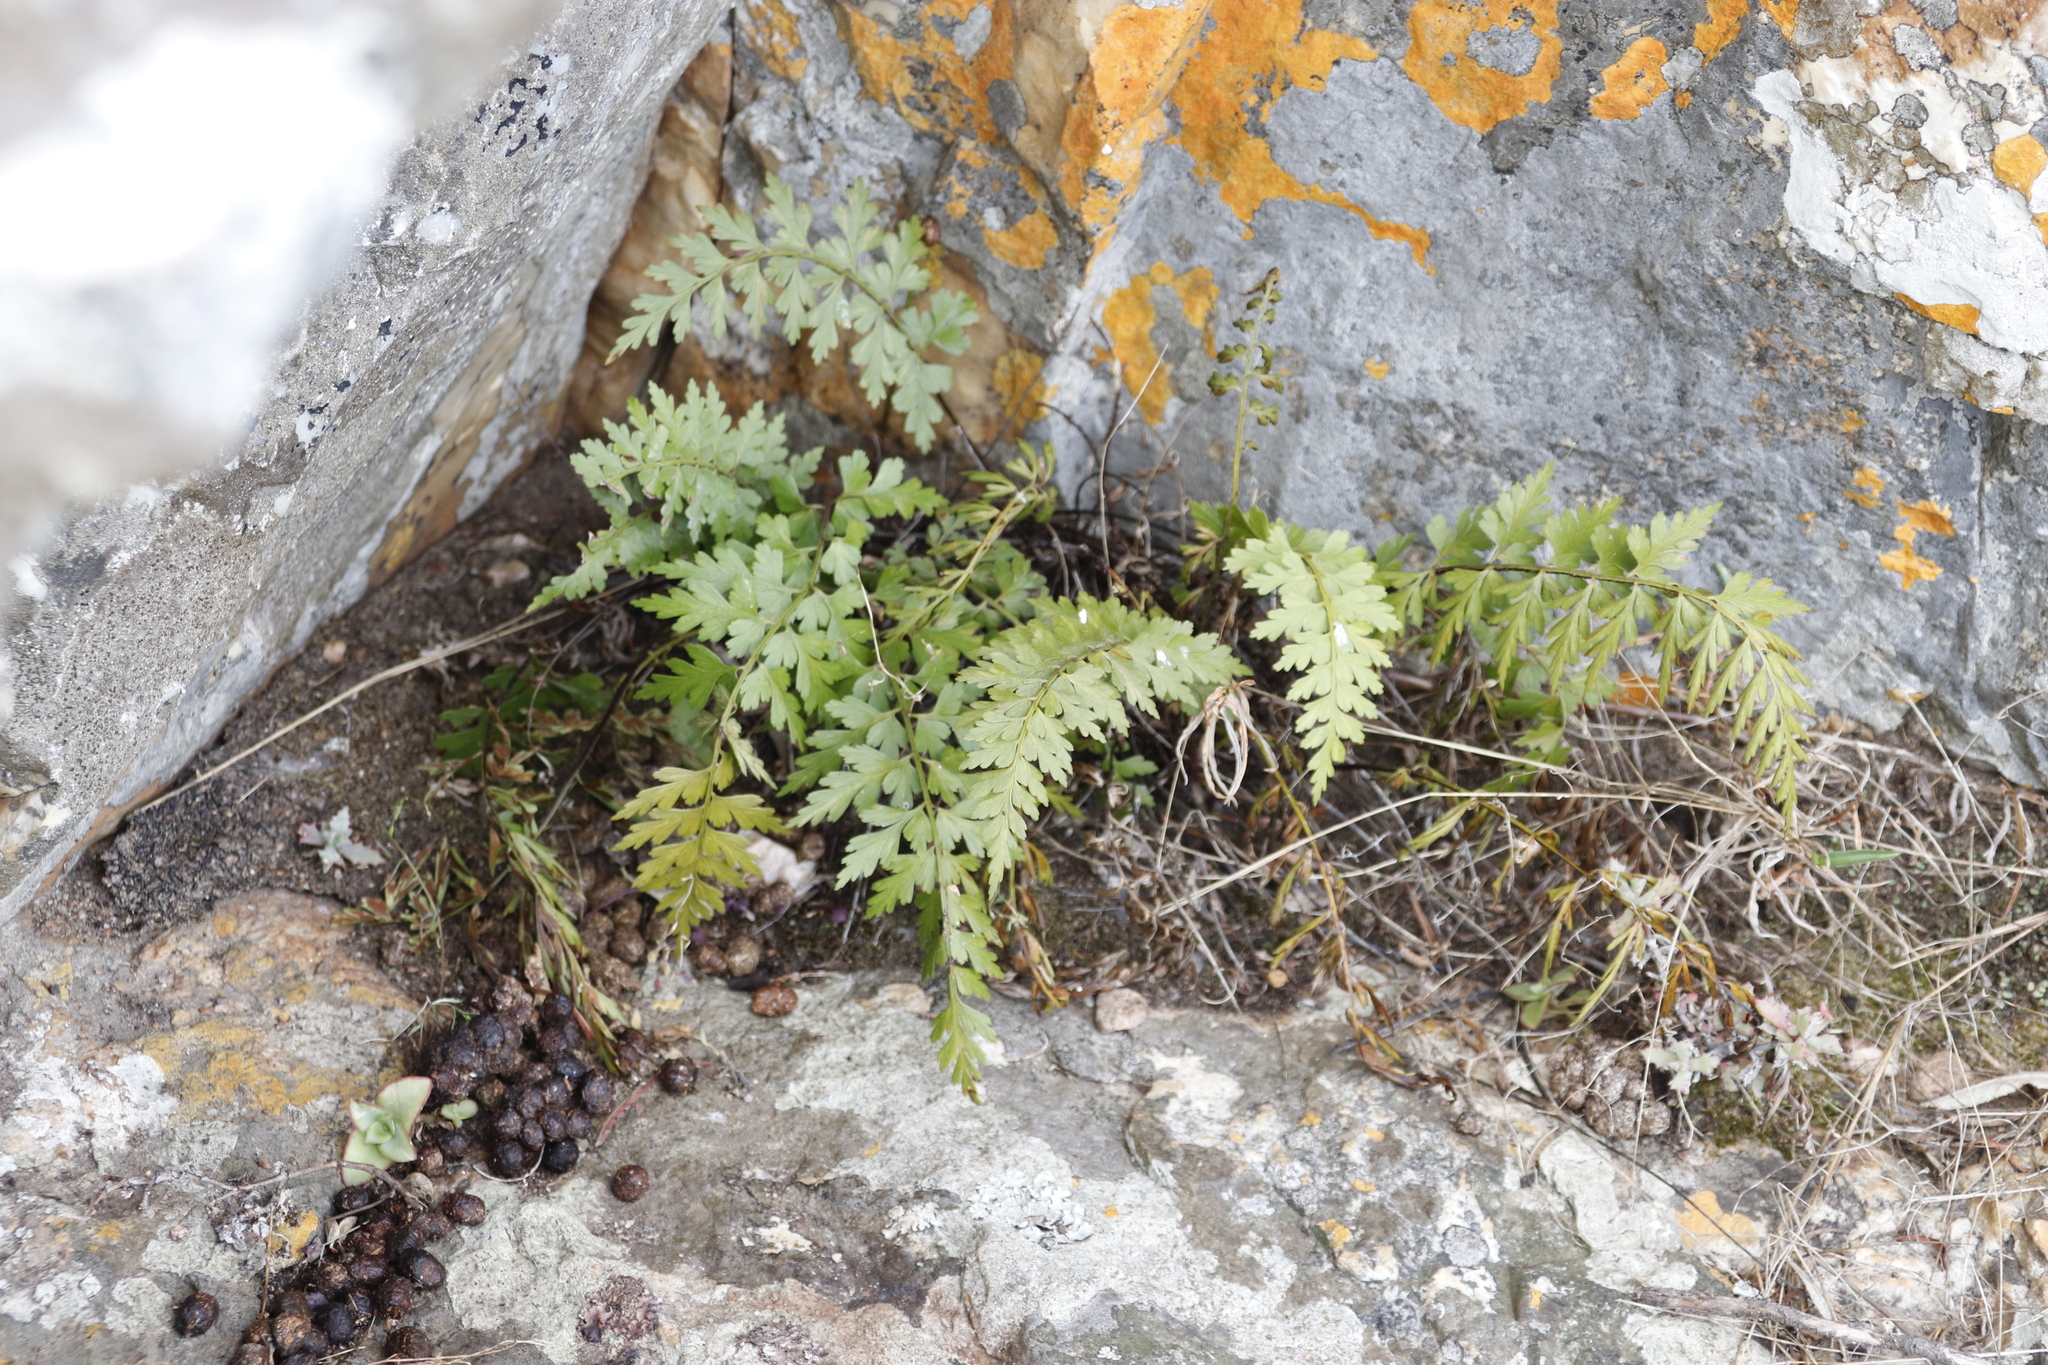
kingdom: Plantae
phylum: Tracheophyta
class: Polypodiopsida
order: Polypodiales
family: Aspleniaceae
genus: Asplenium
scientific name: Asplenium aethiopicum
